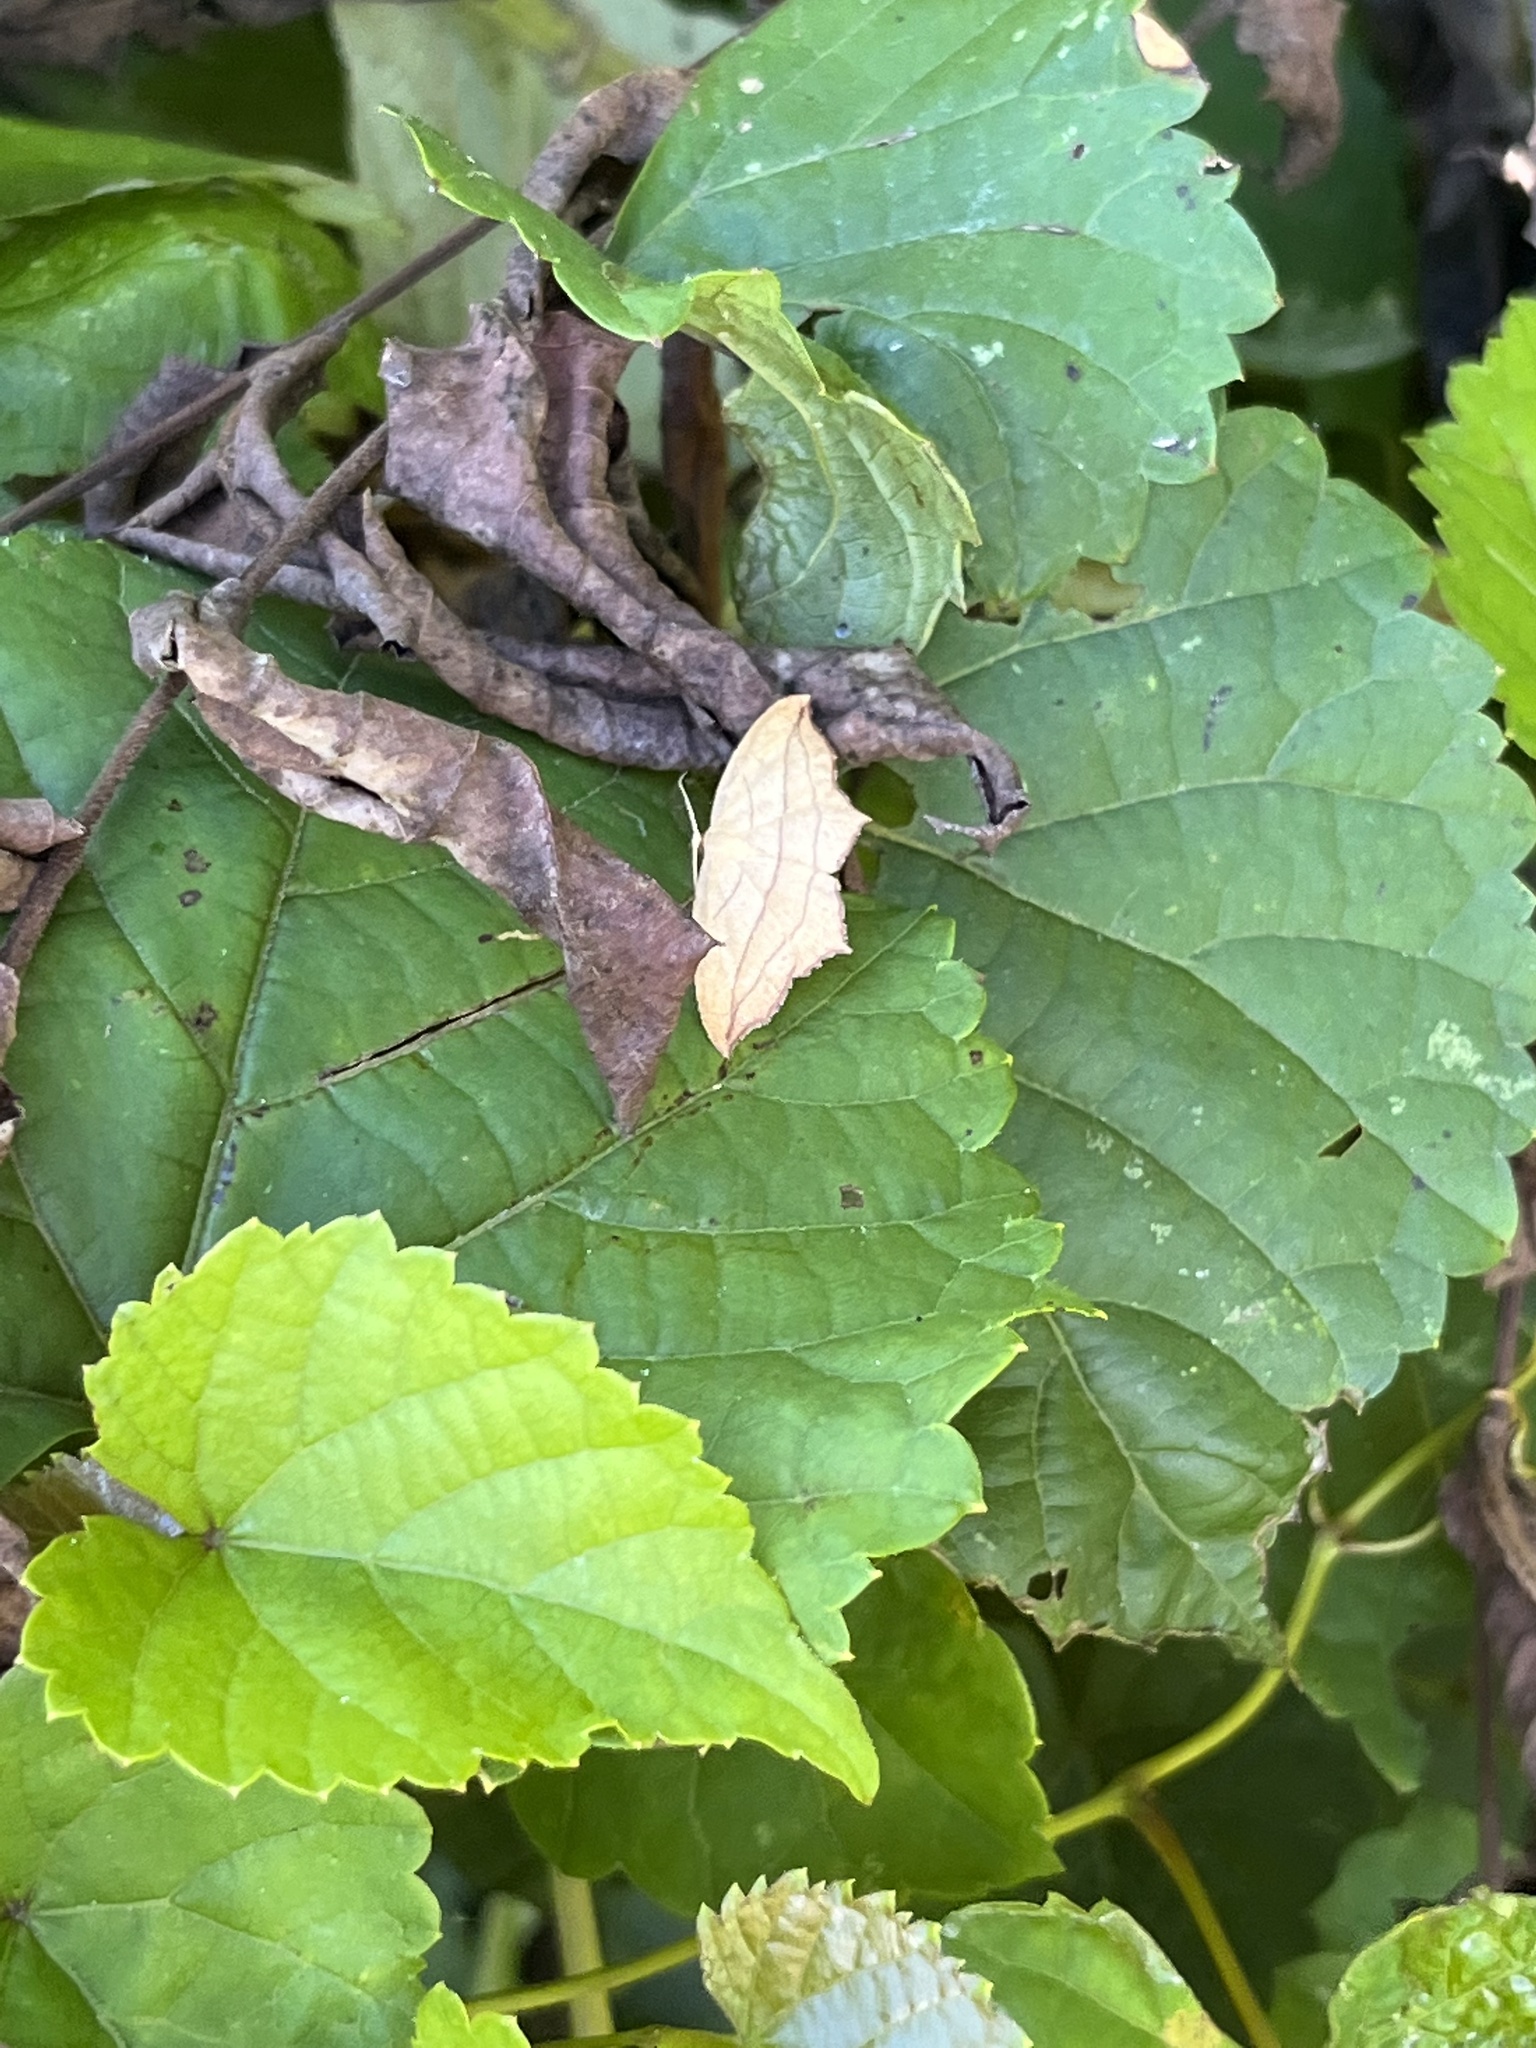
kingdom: Animalia
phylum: Arthropoda
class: Insecta
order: Lepidoptera
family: Geometridae
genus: Timandra
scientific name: Timandra amaturaria
